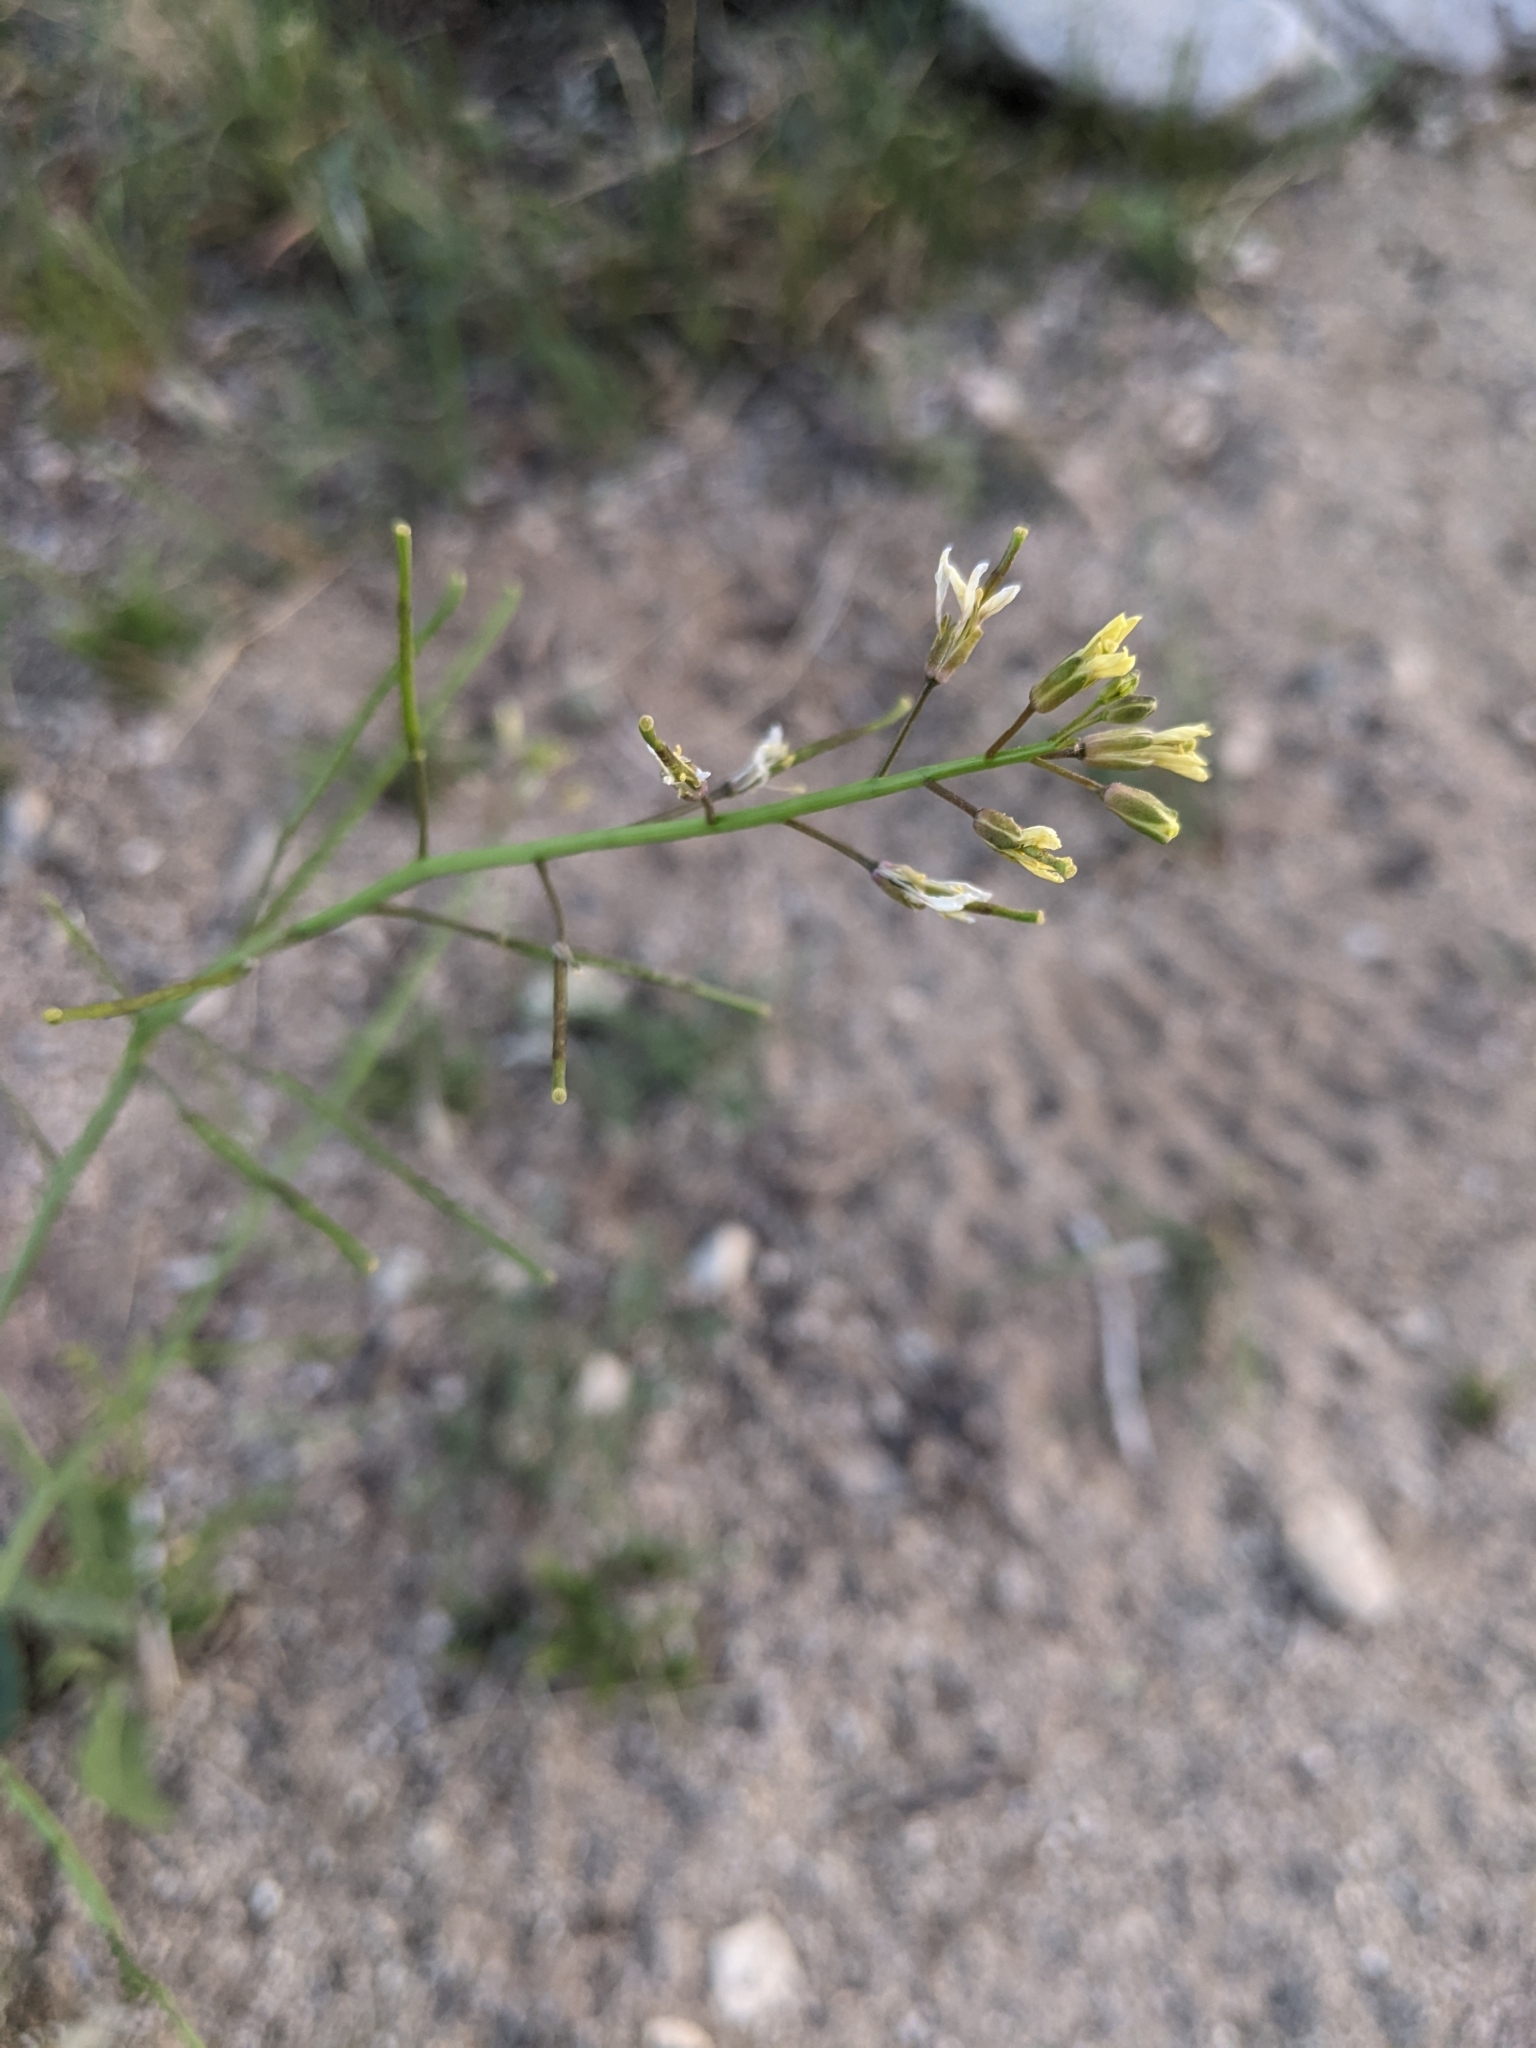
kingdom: Plantae
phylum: Tracheophyta
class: Magnoliopsida
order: Brassicales
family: Brassicaceae
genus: Brassica
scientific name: Brassica tournefortii
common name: Pale cabbage
